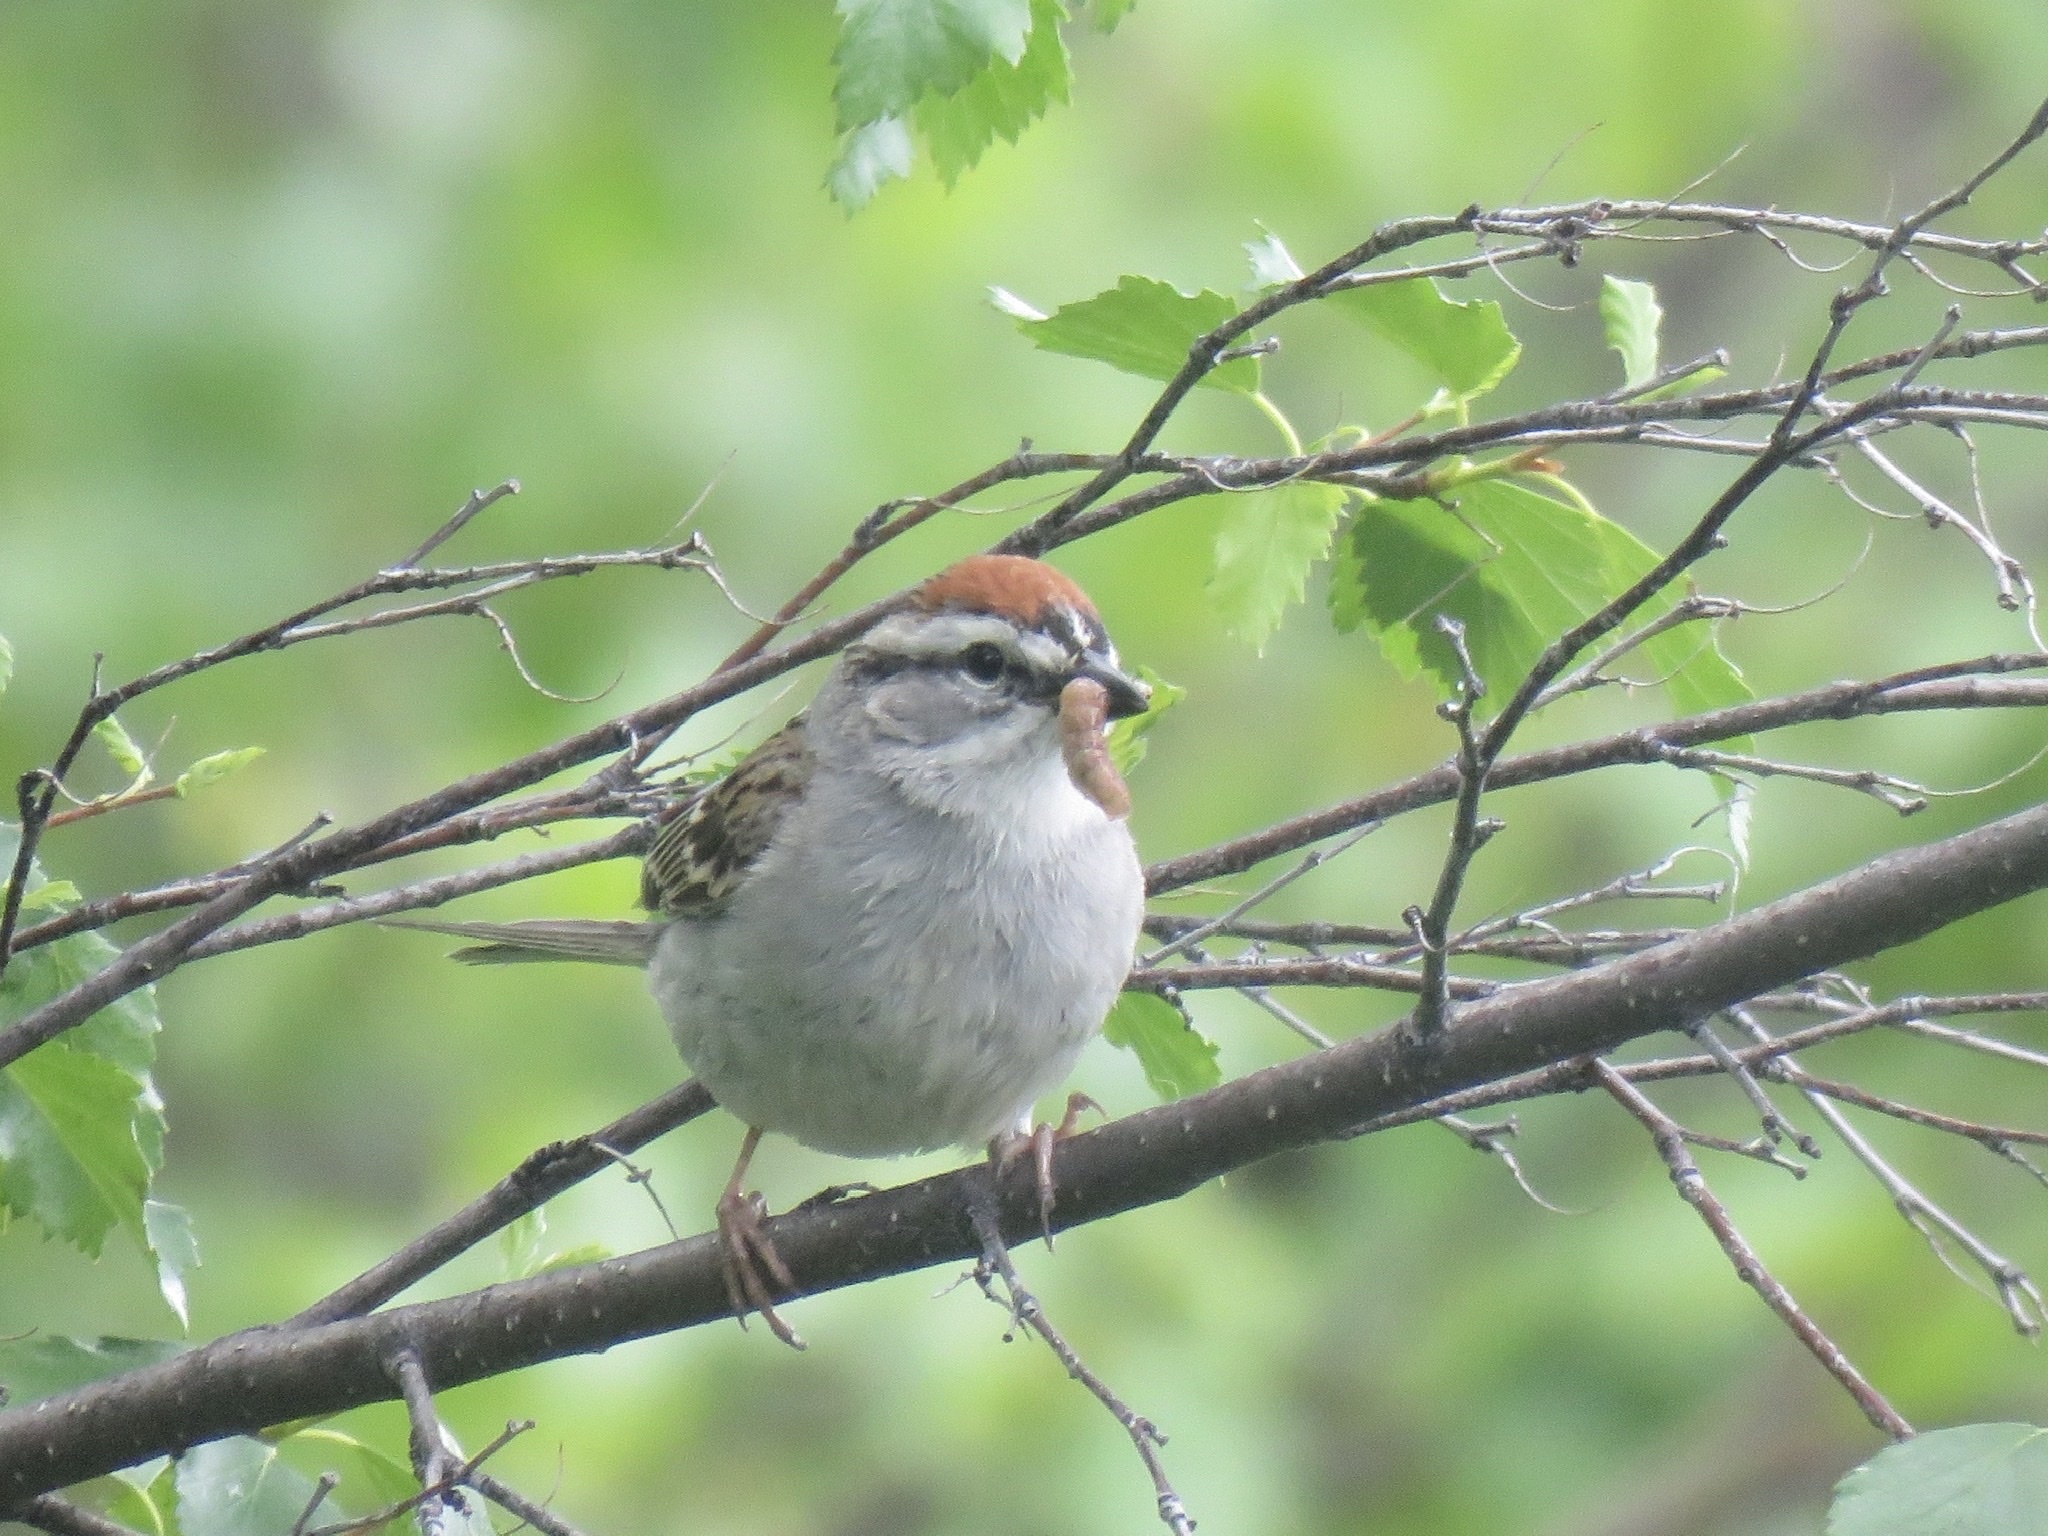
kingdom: Animalia
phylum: Chordata
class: Aves
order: Passeriformes
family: Passerellidae
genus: Spizella
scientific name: Spizella passerina
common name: Chipping sparrow
